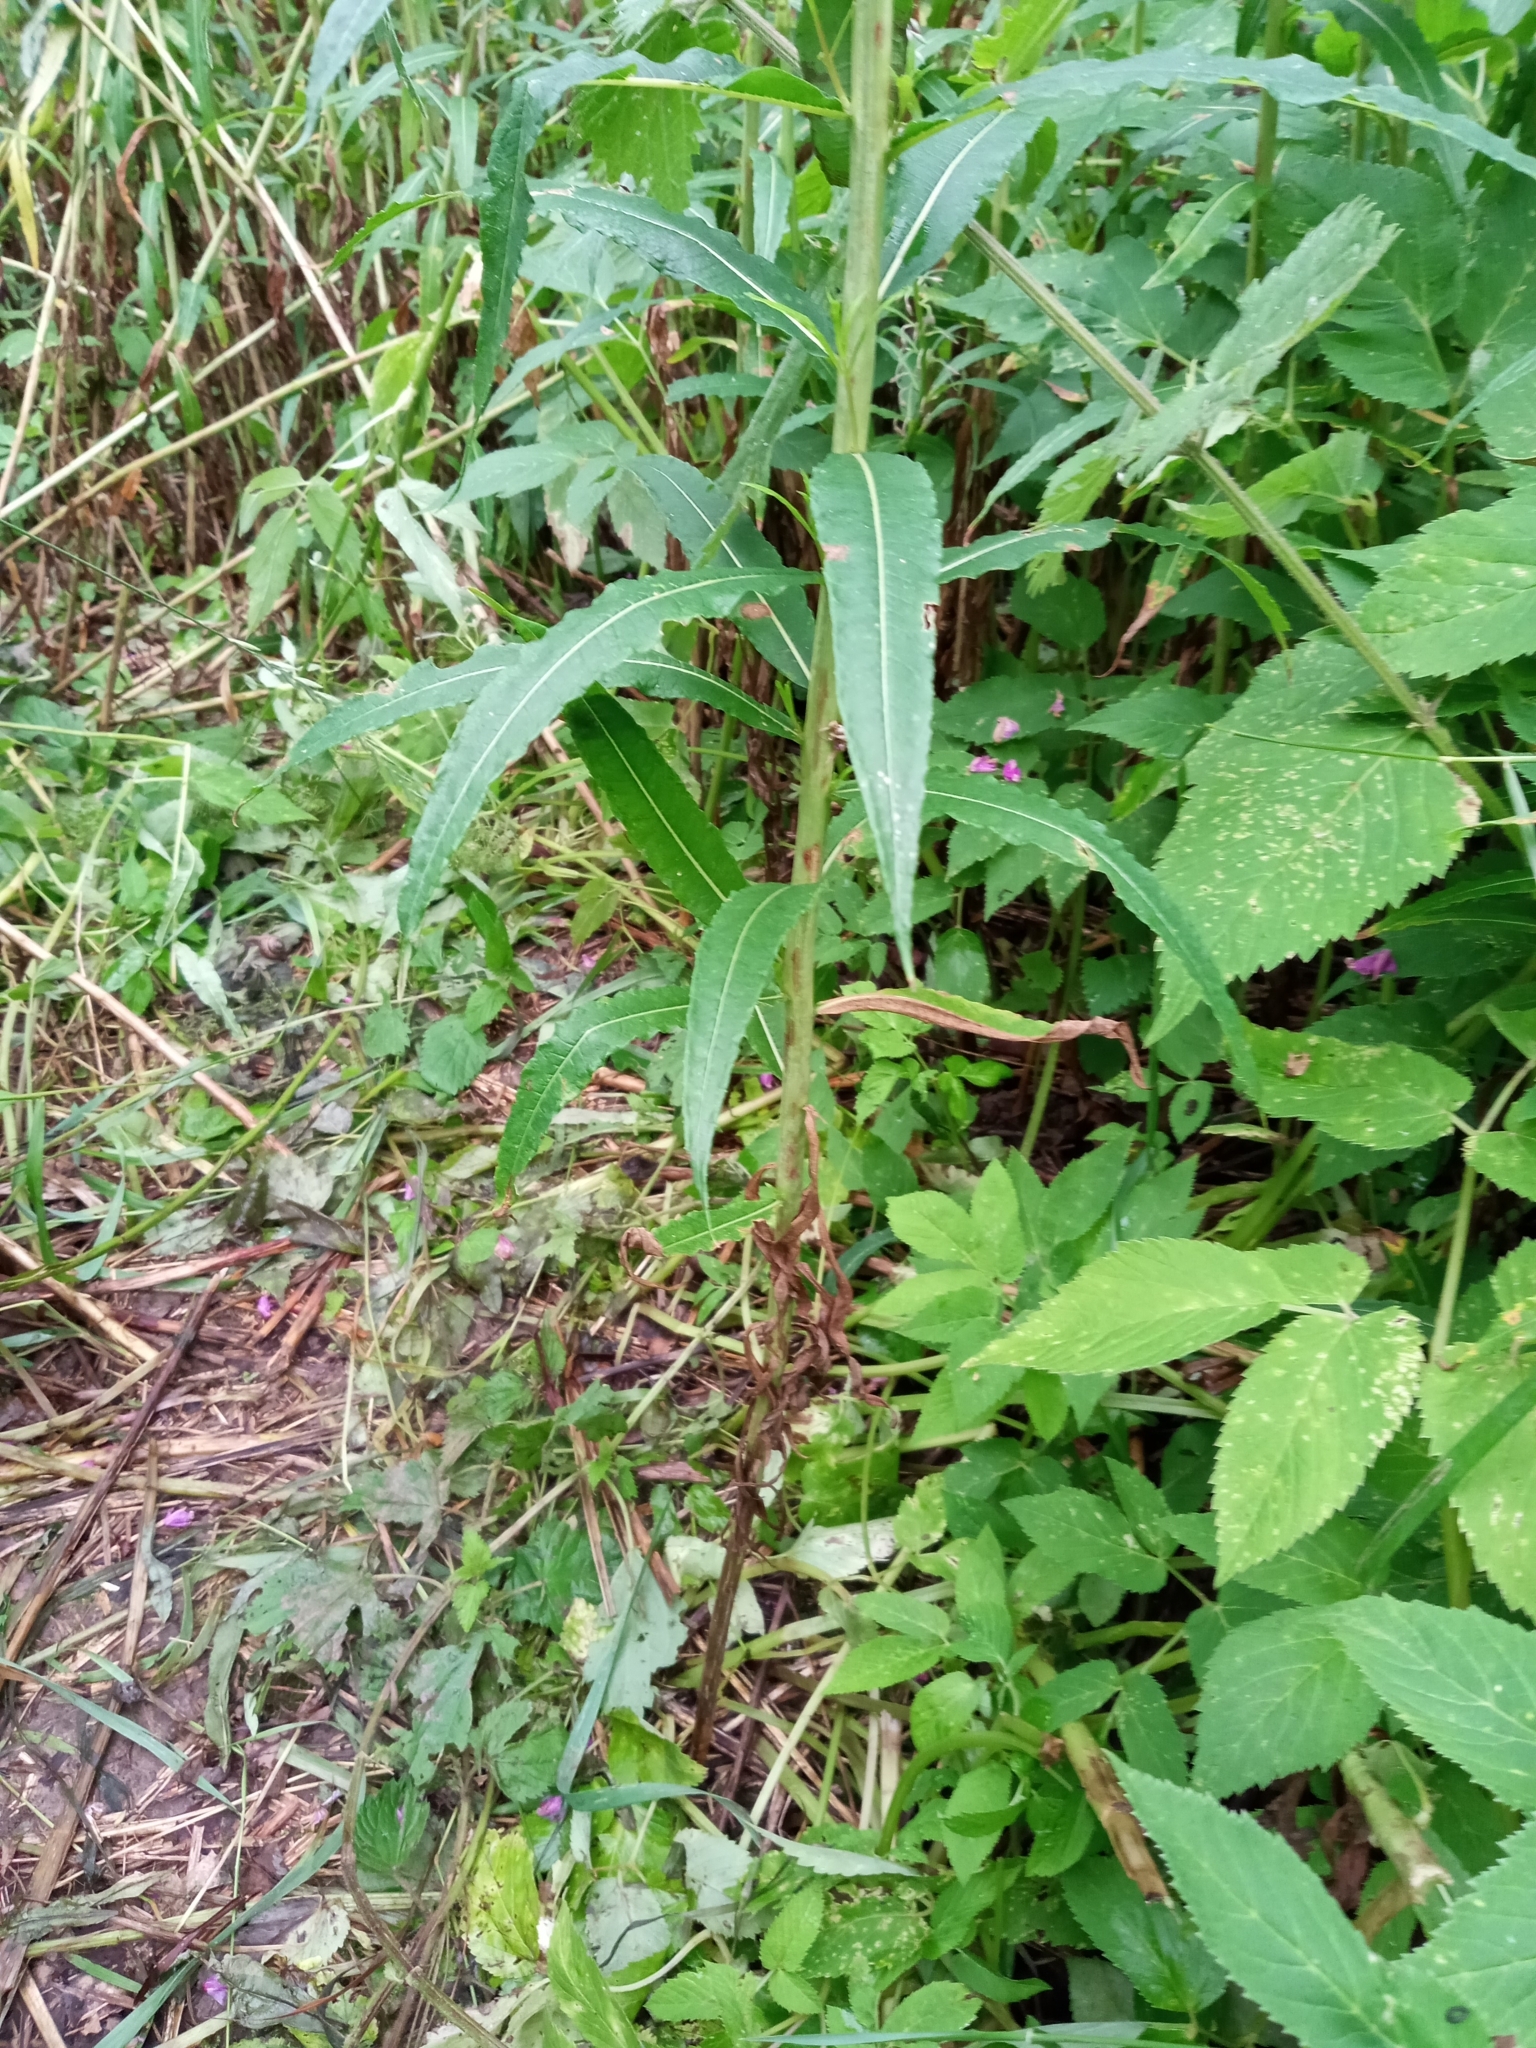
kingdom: Plantae
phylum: Tracheophyta
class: Magnoliopsida
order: Myrtales
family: Onagraceae
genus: Chamaenerion
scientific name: Chamaenerion angustifolium
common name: Fireweed
